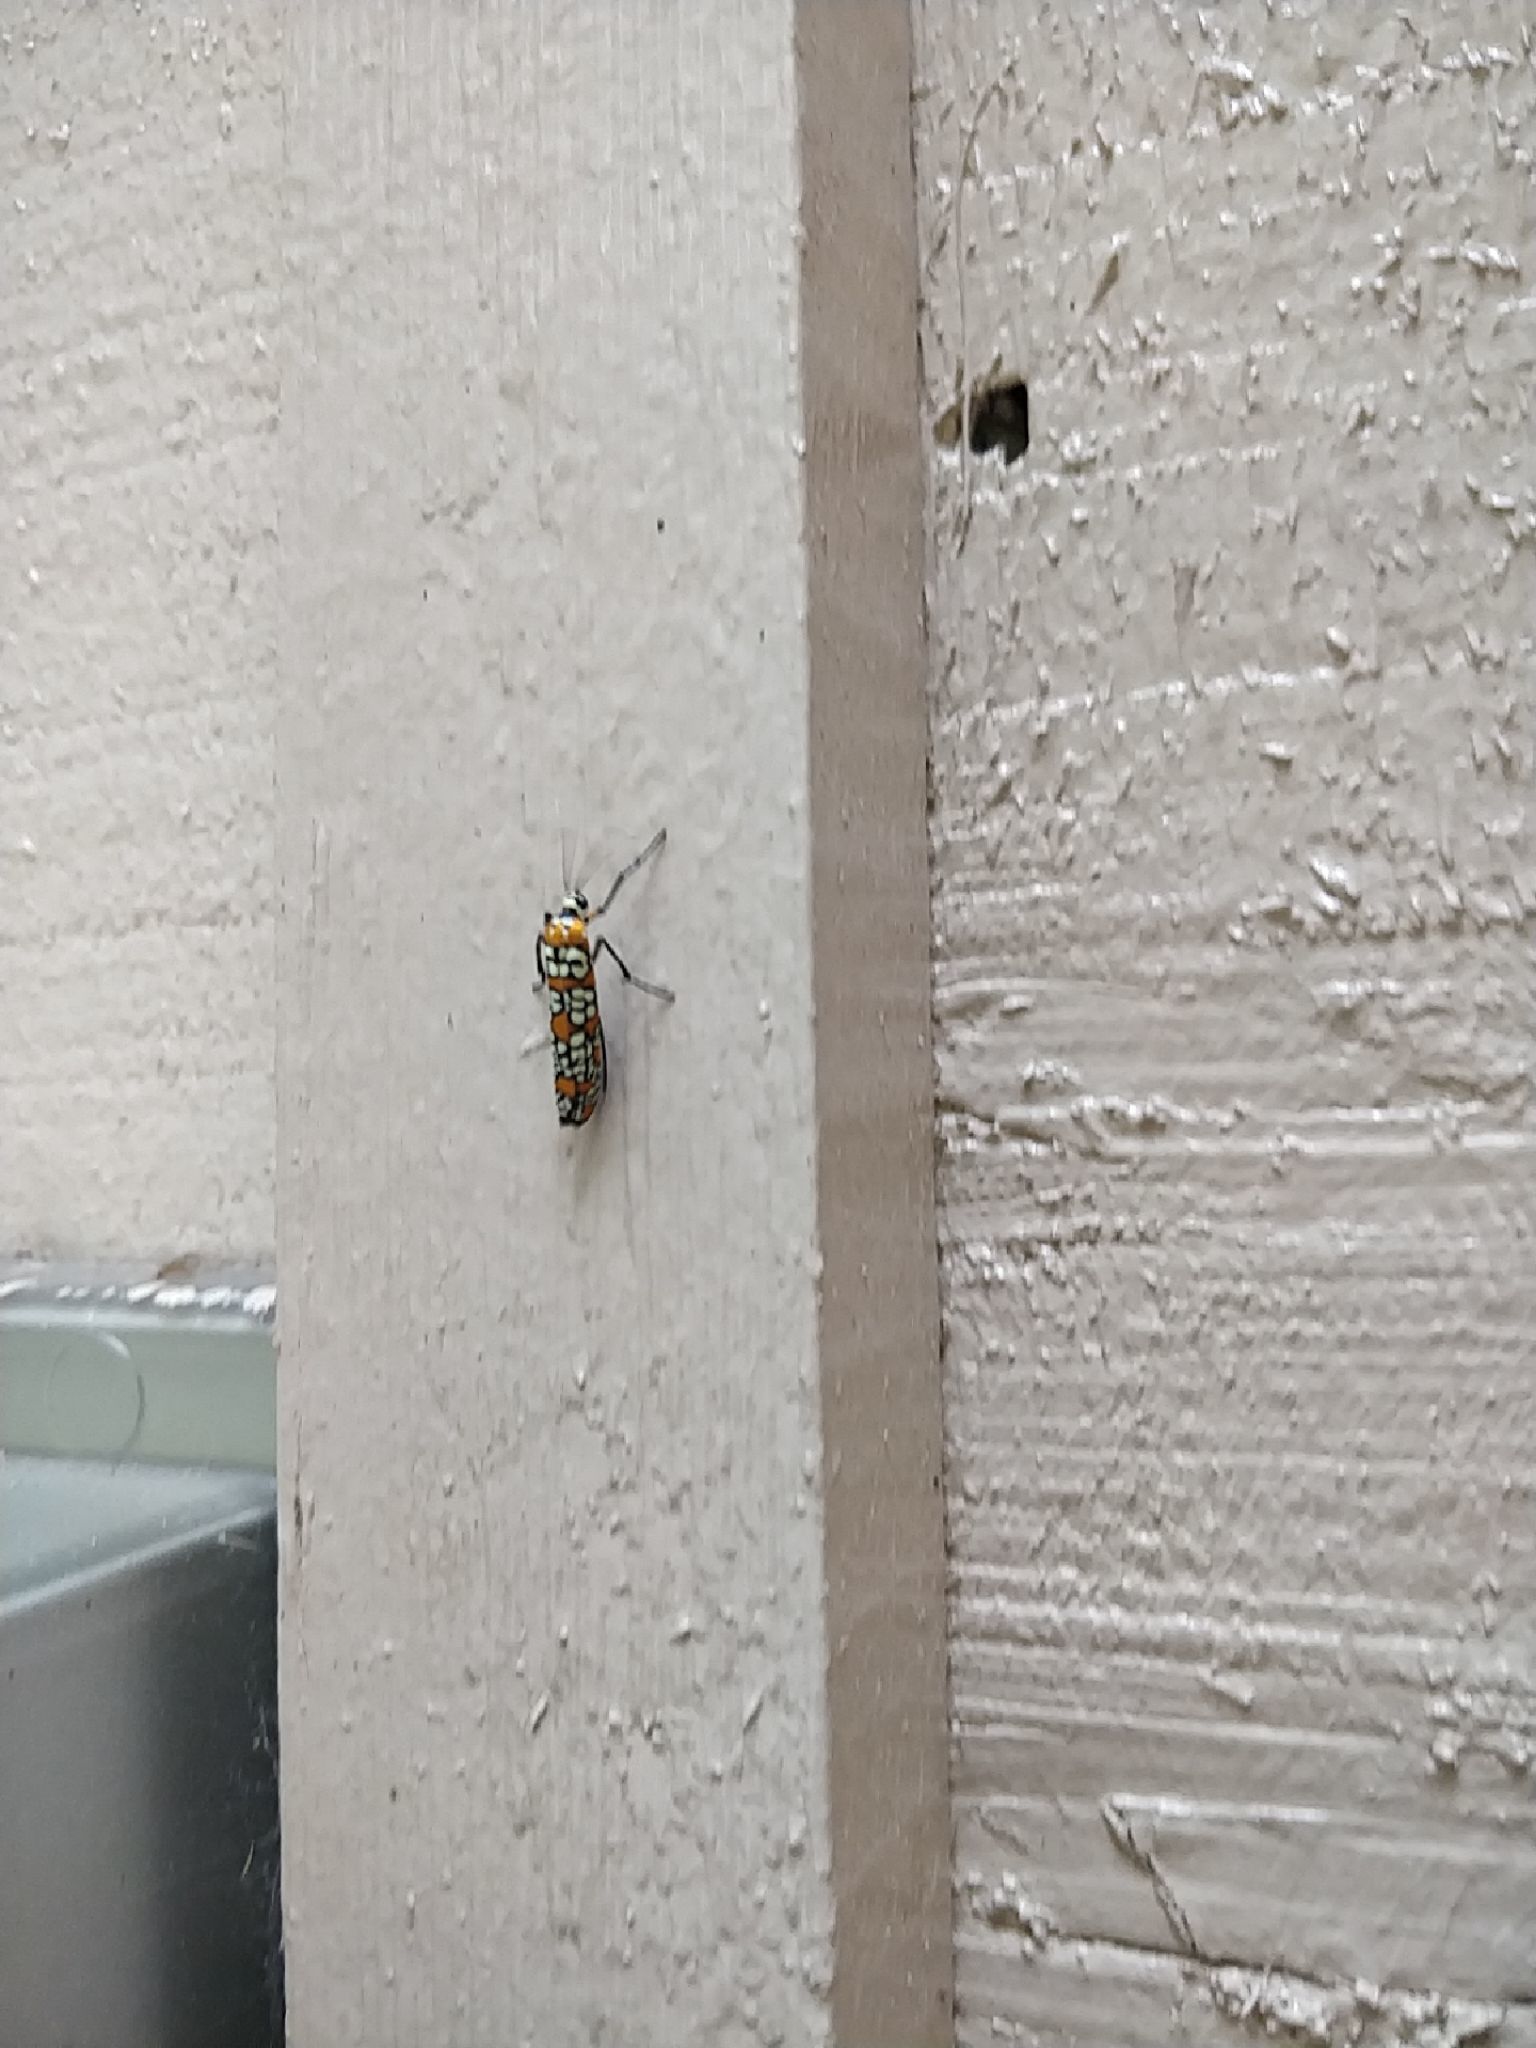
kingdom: Animalia
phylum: Arthropoda
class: Insecta
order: Lepidoptera
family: Attevidae
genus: Atteva
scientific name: Atteva punctella
